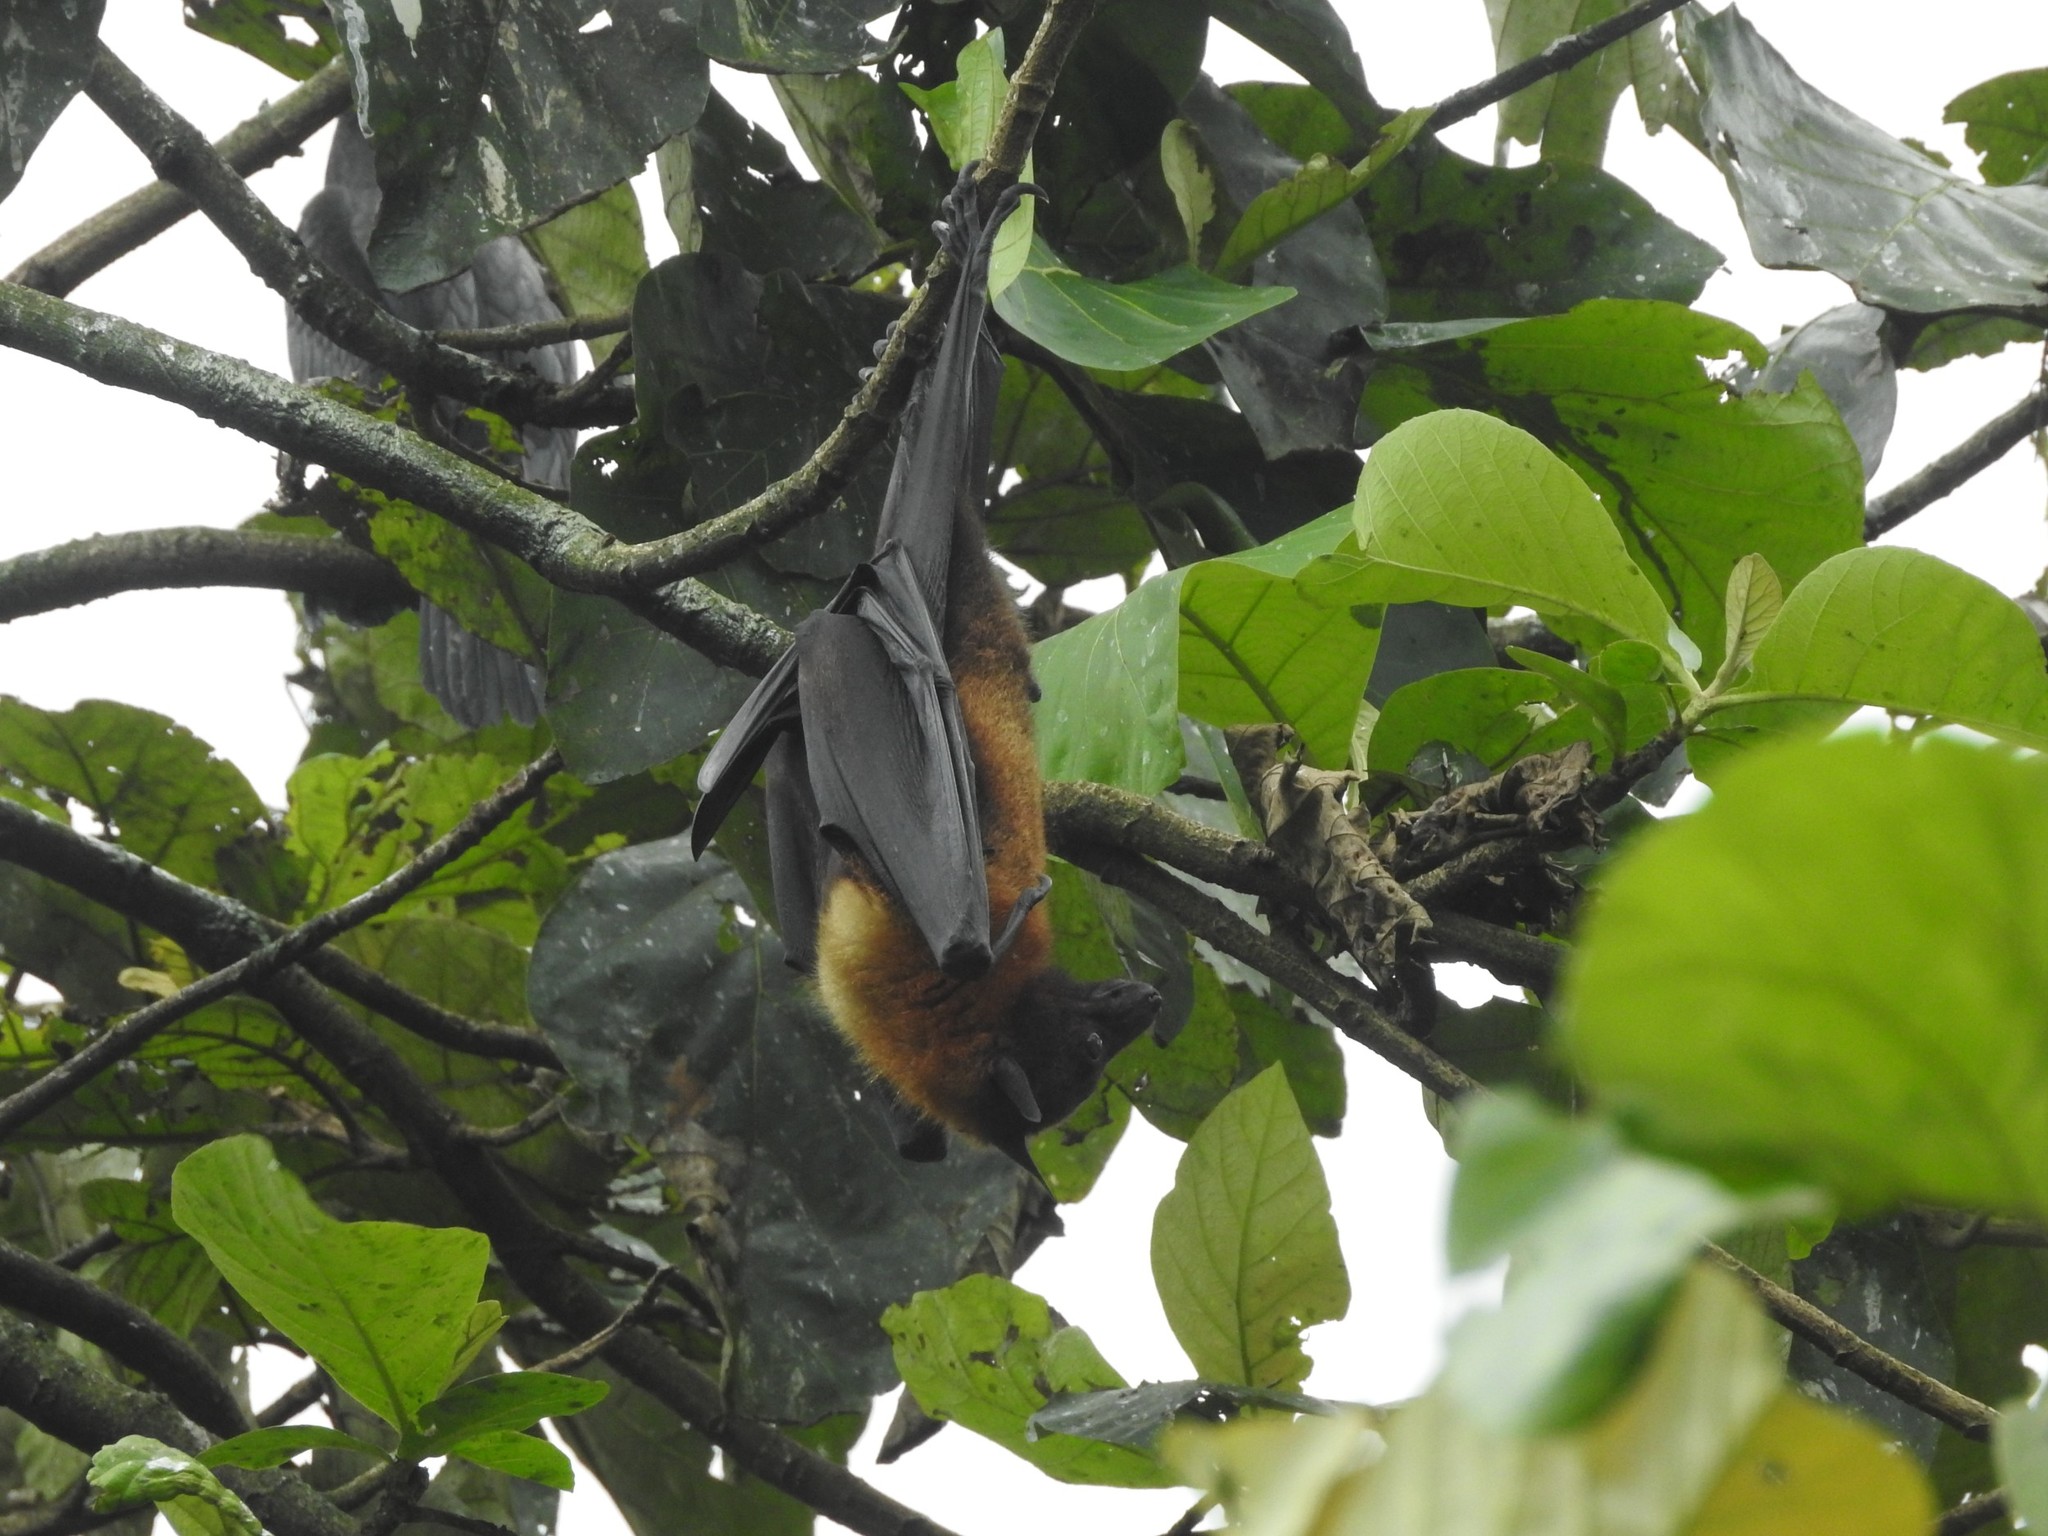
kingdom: Animalia
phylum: Chordata
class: Mammalia
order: Chiroptera
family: Pteropodidae
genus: Pteropus
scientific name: Pteropus vampyrus
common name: Large flying fox
